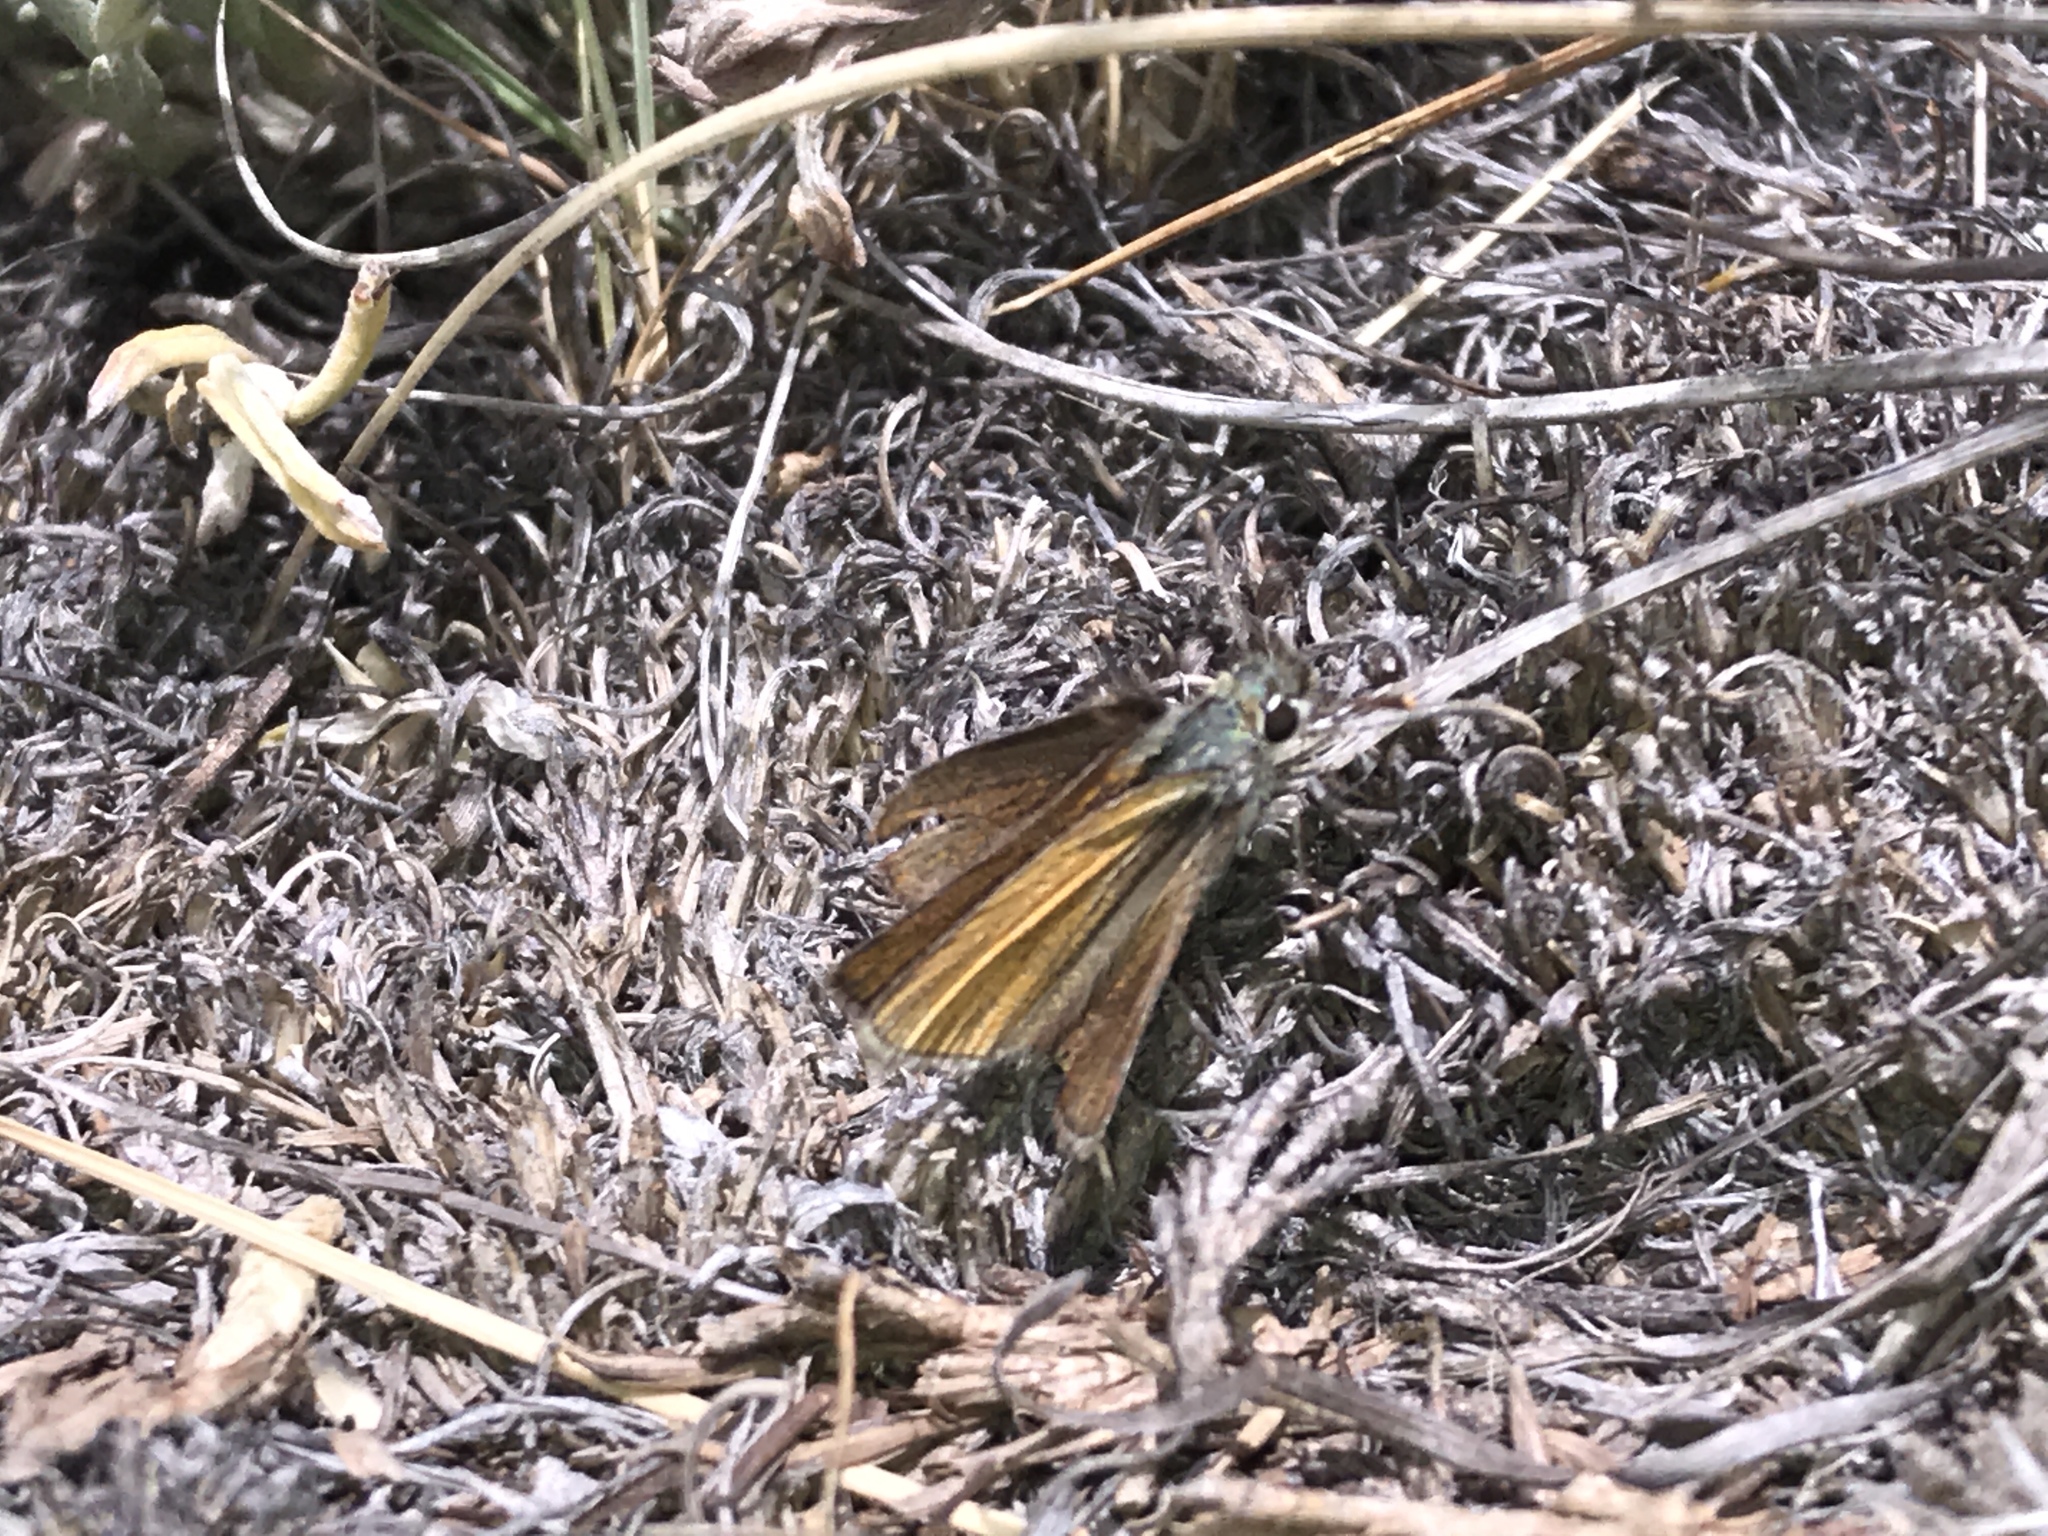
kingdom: Animalia
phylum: Arthropoda
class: Insecta
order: Lepidoptera
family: Hesperiidae
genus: Oarisma
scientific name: Oarisma garita
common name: Garita skipperling
